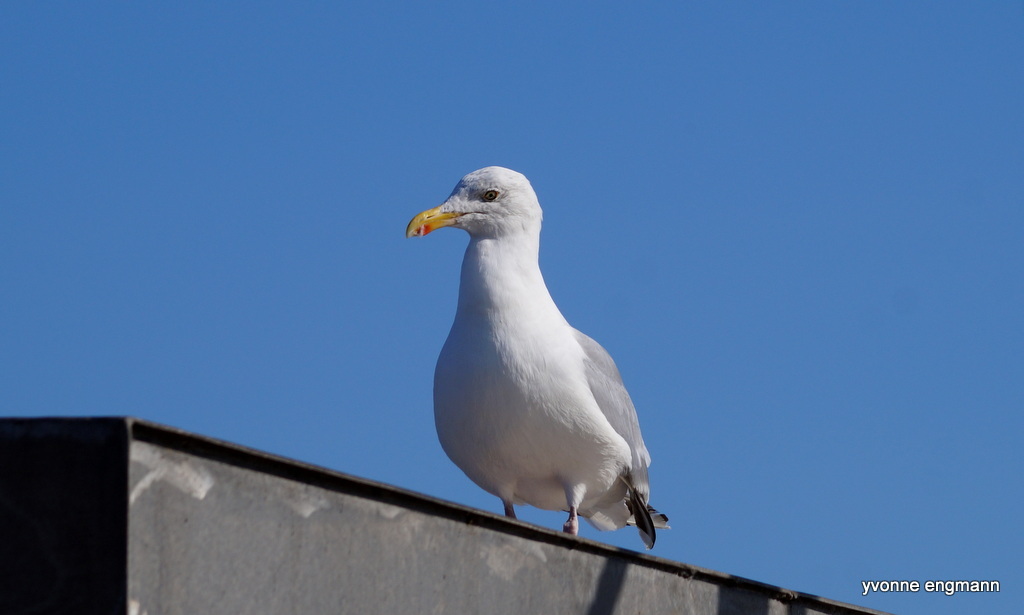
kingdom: Animalia
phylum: Chordata
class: Aves
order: Charadriiformes
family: Laridae
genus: Larus
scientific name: Larus argentatus
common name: Herring gull
